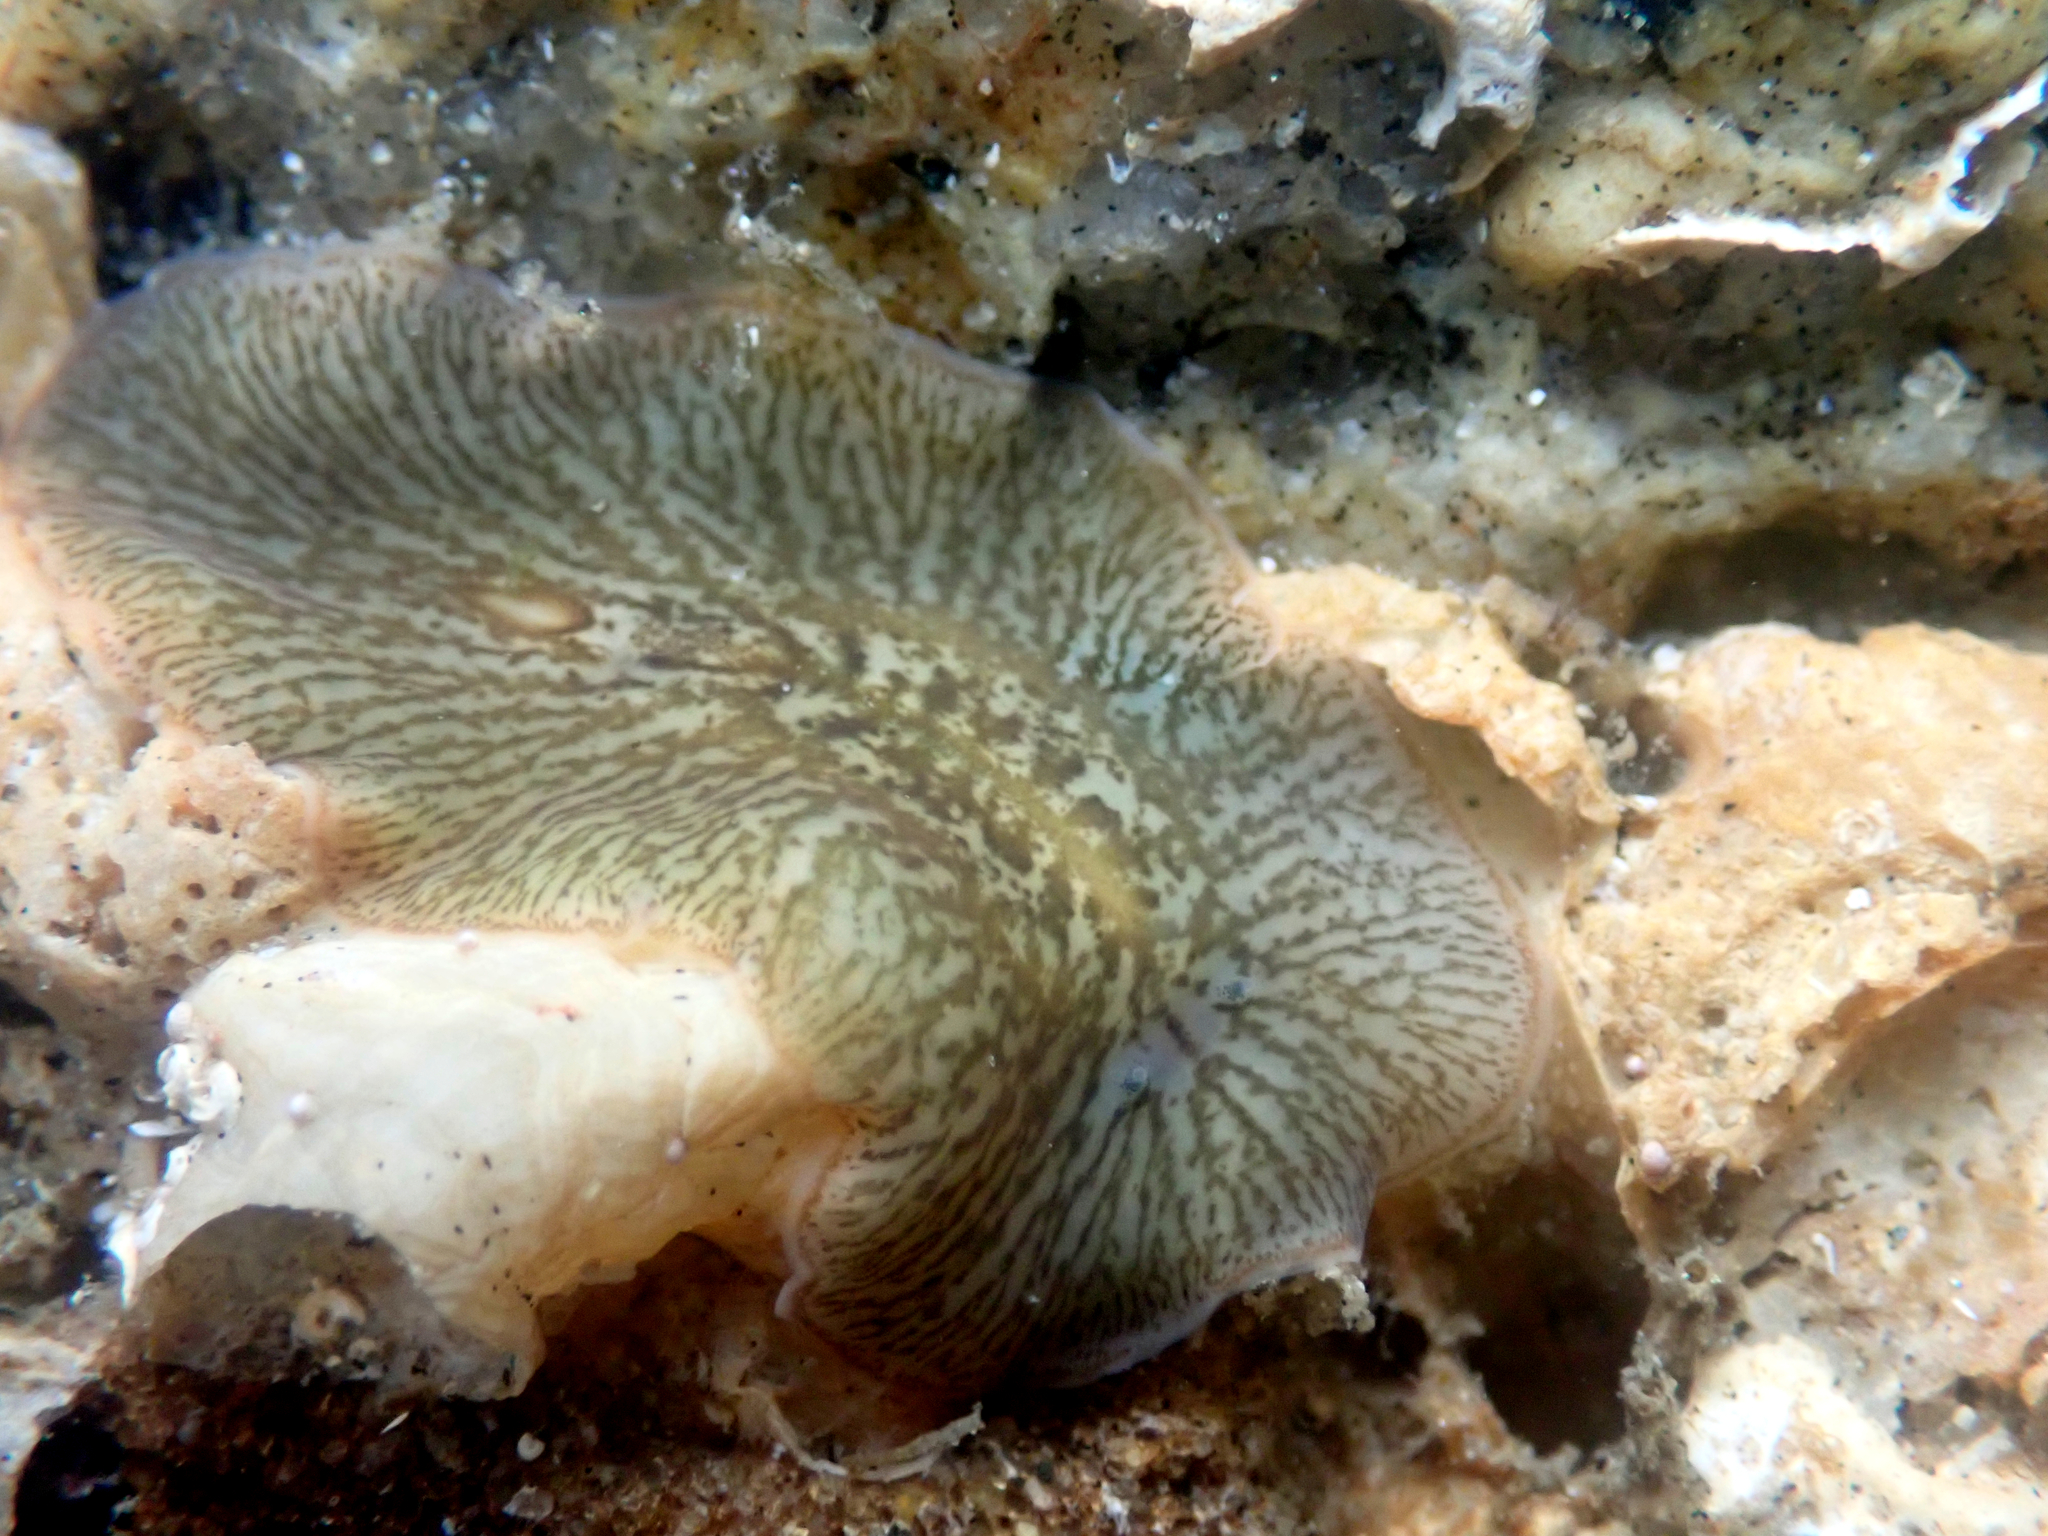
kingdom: Animalia
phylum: Platyhelminthes
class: Turbellaria
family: Cryptocelidae
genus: Hylocelis
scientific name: Hylocelis californica
